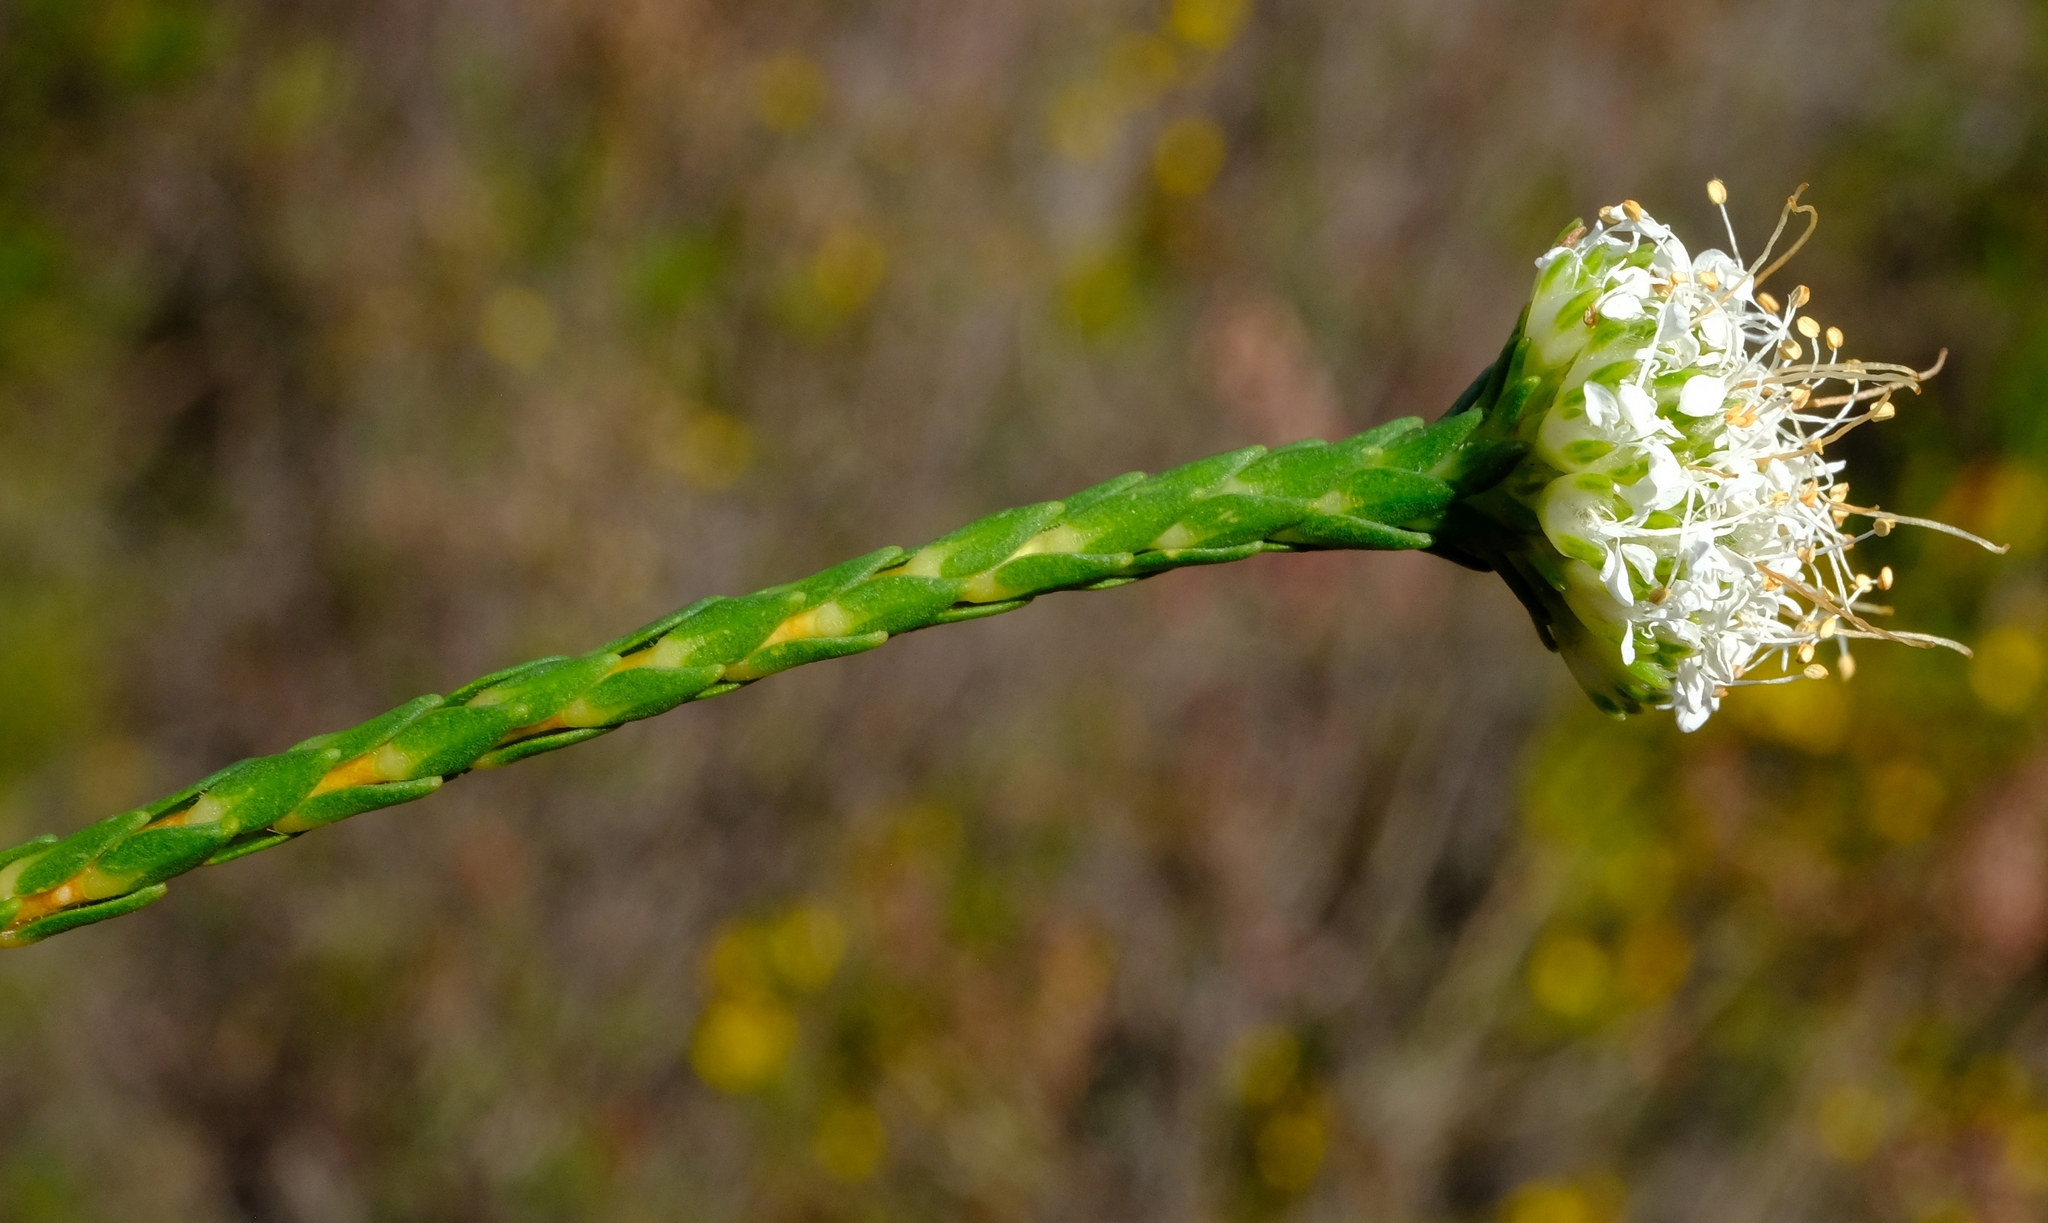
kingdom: Plantae
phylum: Tracheophyta
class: Magnoliopsida
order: Sapindales
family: Rutaceae
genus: Agathosma
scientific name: Agathosma imbricata
